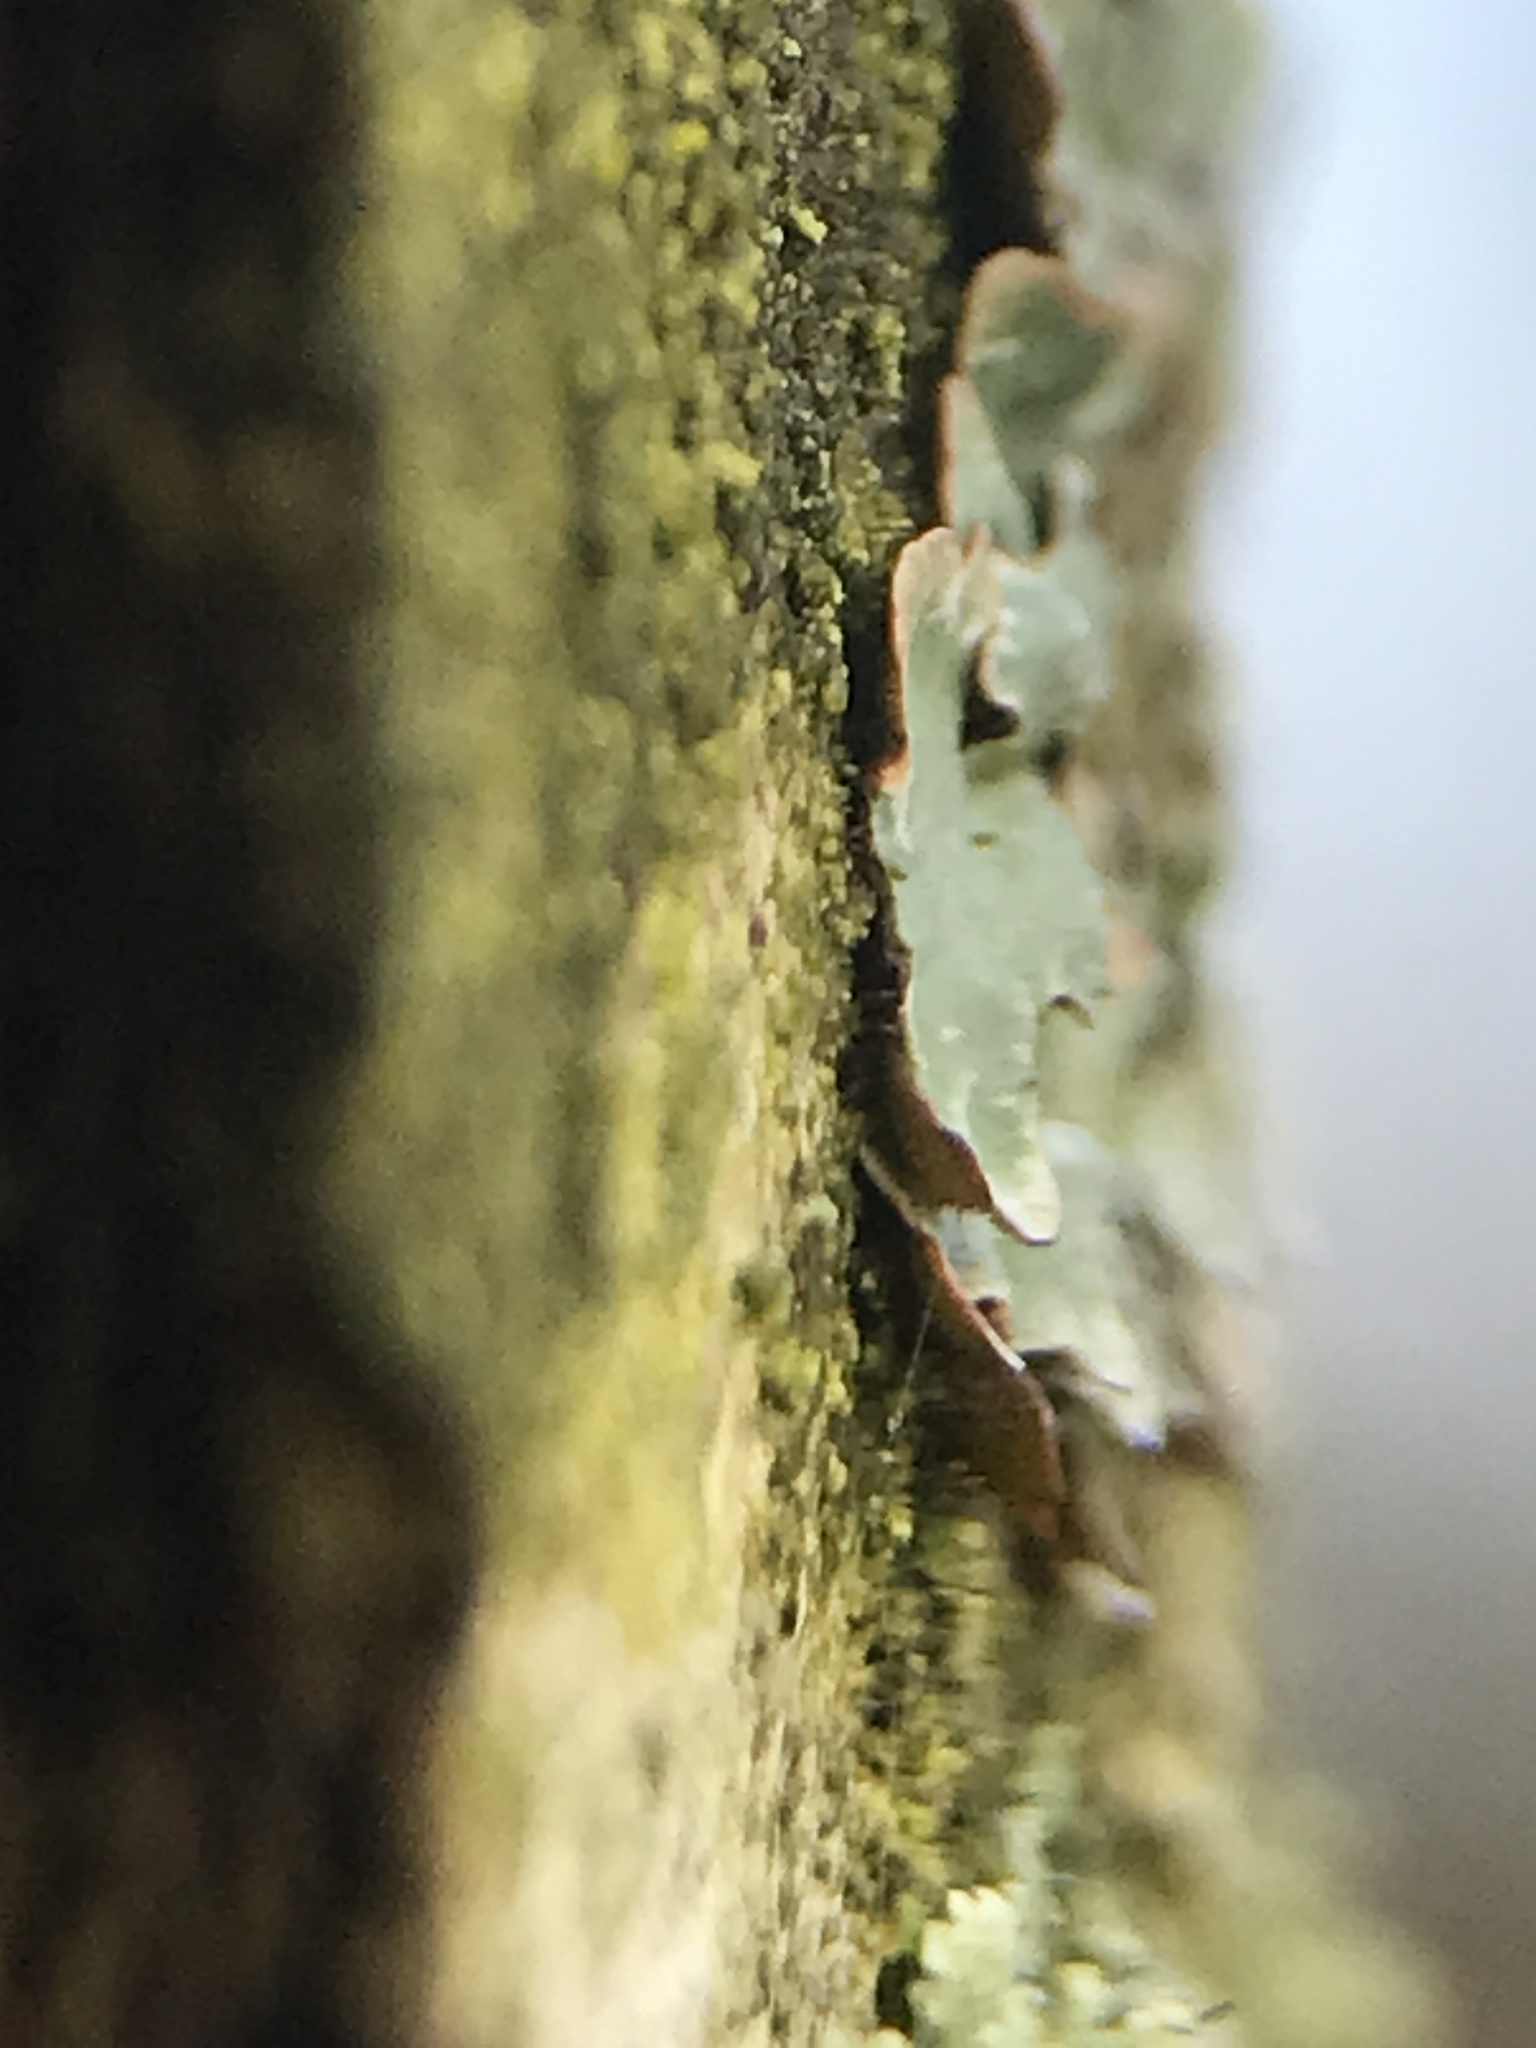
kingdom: Fungi
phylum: Ascomycota
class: Lecanoromycetes
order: Lecanorales
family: Parmeliaceae
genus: Parmelia
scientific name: Parmelia sulcata
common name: Netted shield lichen
